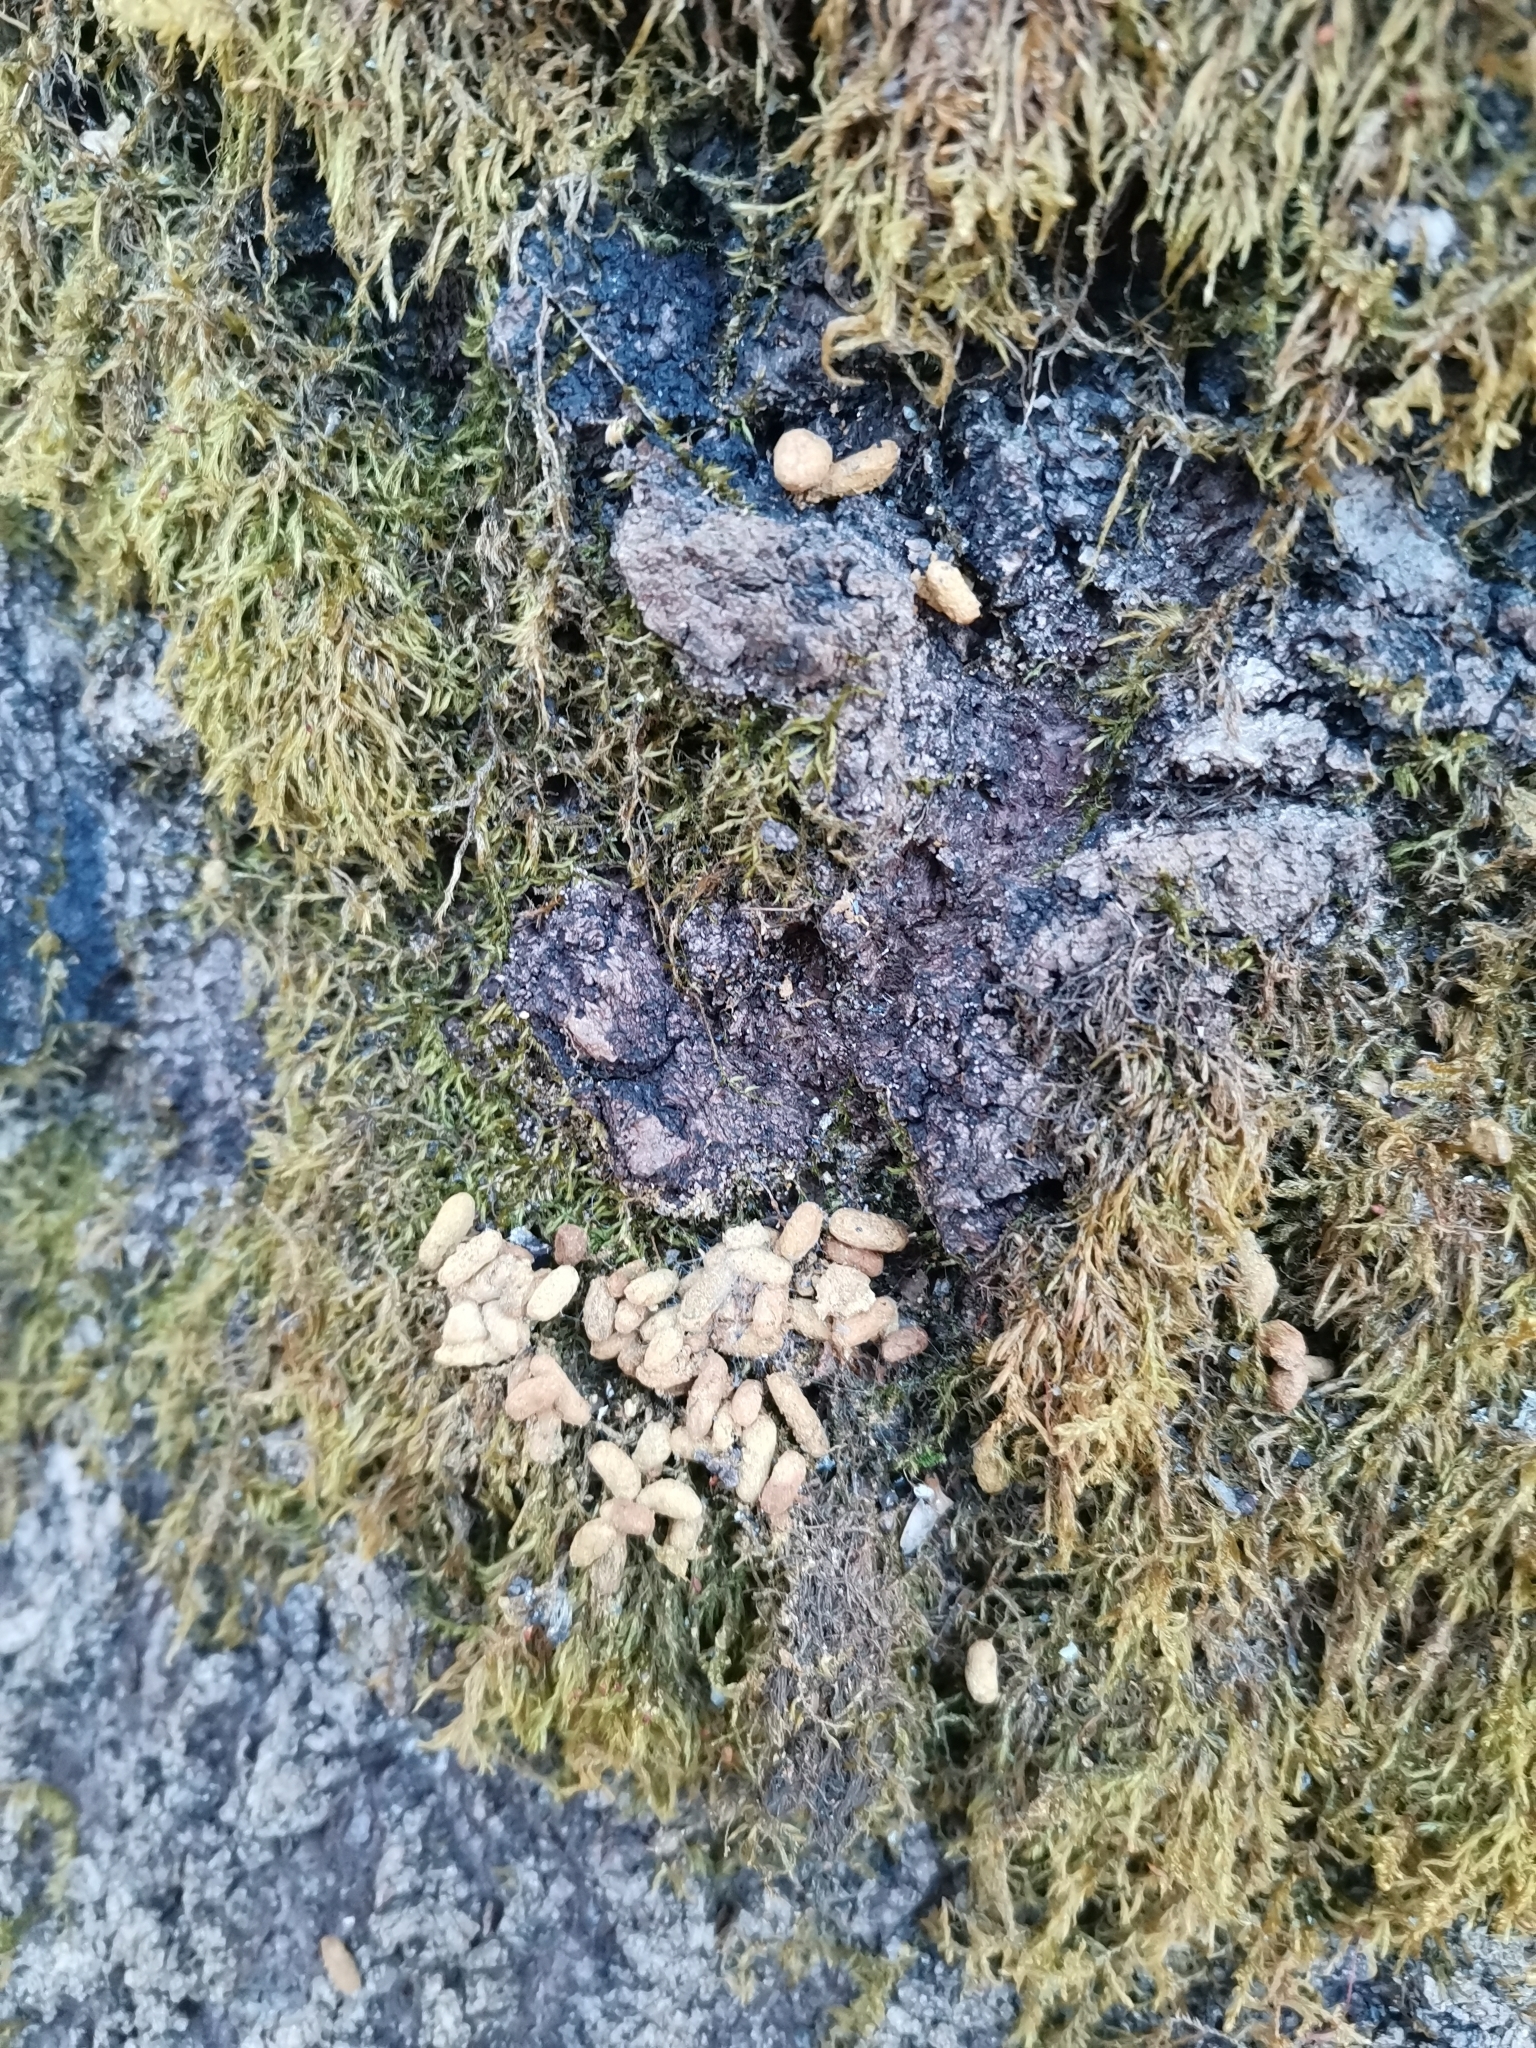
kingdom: Animalia
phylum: Chordata
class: Mammalia
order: Rodentia
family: Sciuridae
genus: Pteromys
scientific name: Pteromys volans
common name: Siberian flying squirrel
